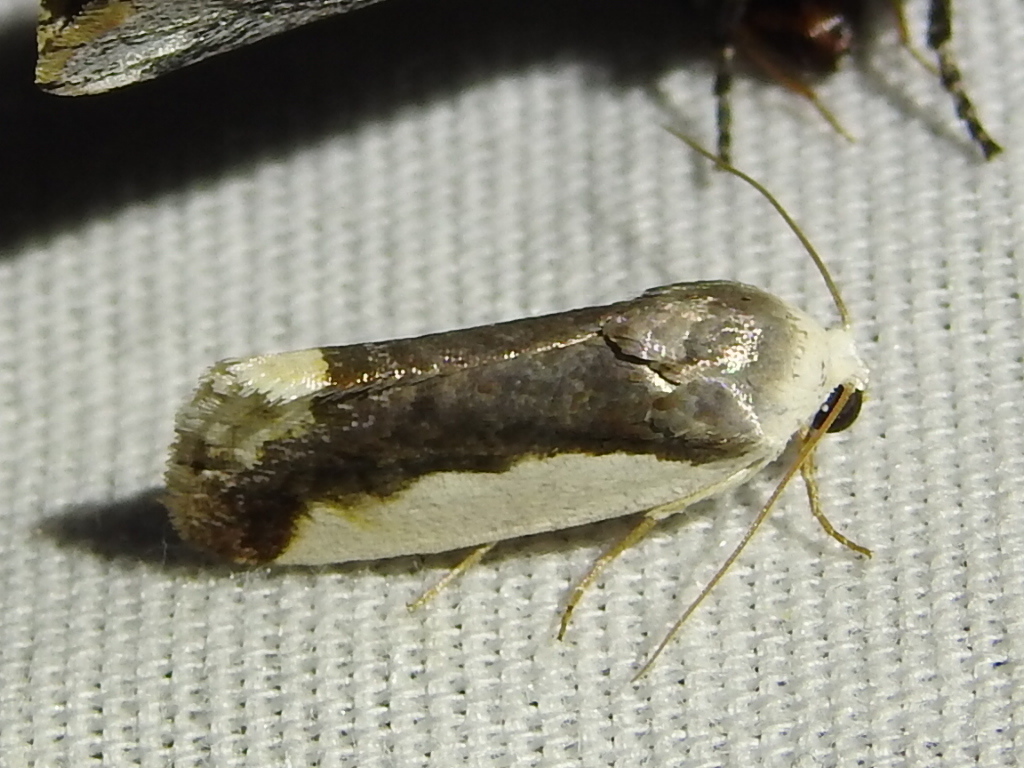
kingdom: Animalia
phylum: Arthropoda
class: Insecta
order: Lepidoptera
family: Noctuidae
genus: Acontia
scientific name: Acontia Tarache expolita
